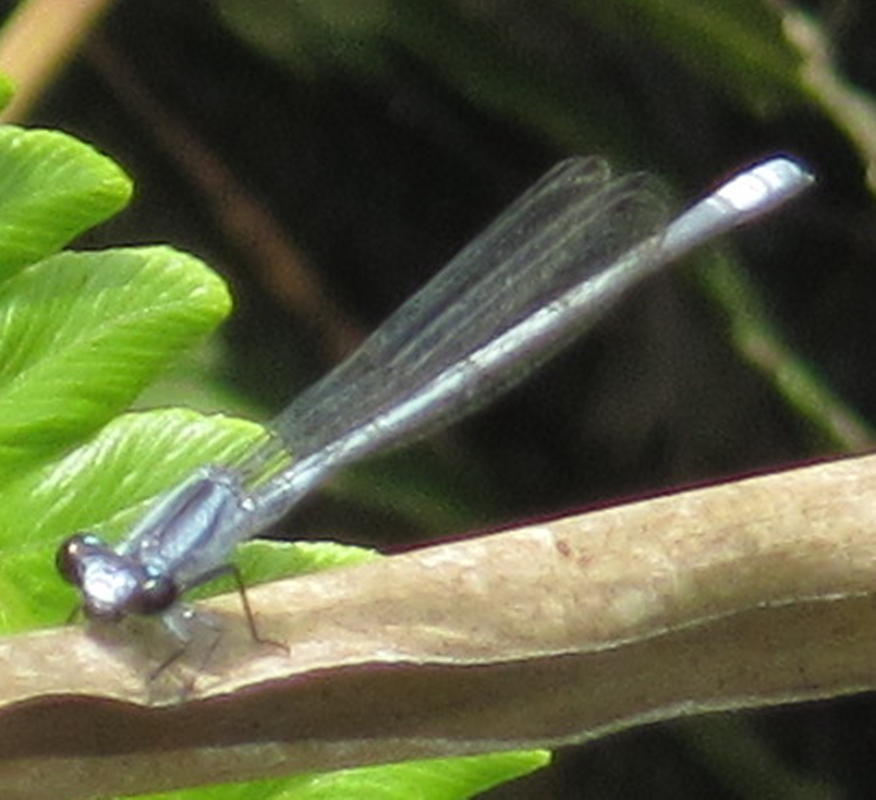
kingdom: Animalia
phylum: Arthropoda
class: Insecta
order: Odonata
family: Coenagrionidae
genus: Pseudagrion
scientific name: Pseudagrion kersteni
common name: Powder-faced sprite
